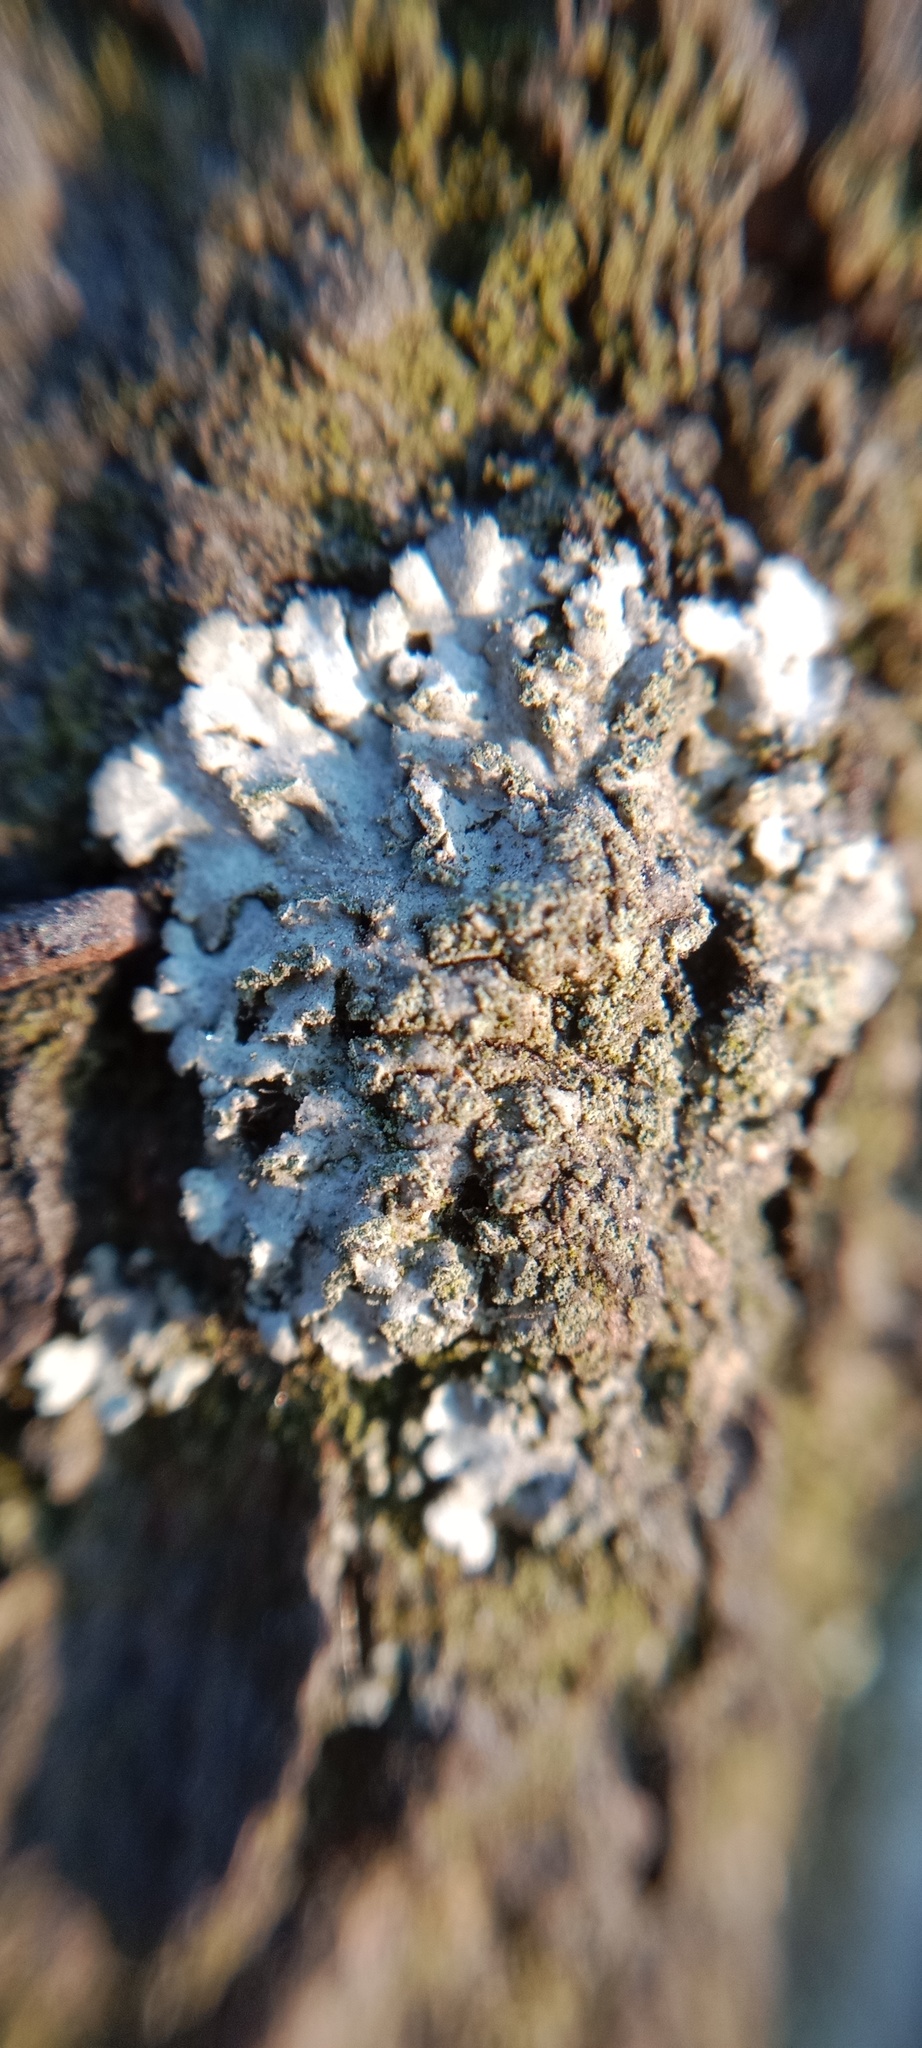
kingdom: Fungi
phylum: Ascomycota
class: Lecanoromycetes
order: Caliciales
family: Physciaceae
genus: Phaeophyscia
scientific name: Phaeophyscia orbicularis
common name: Mealy shadow lichen
